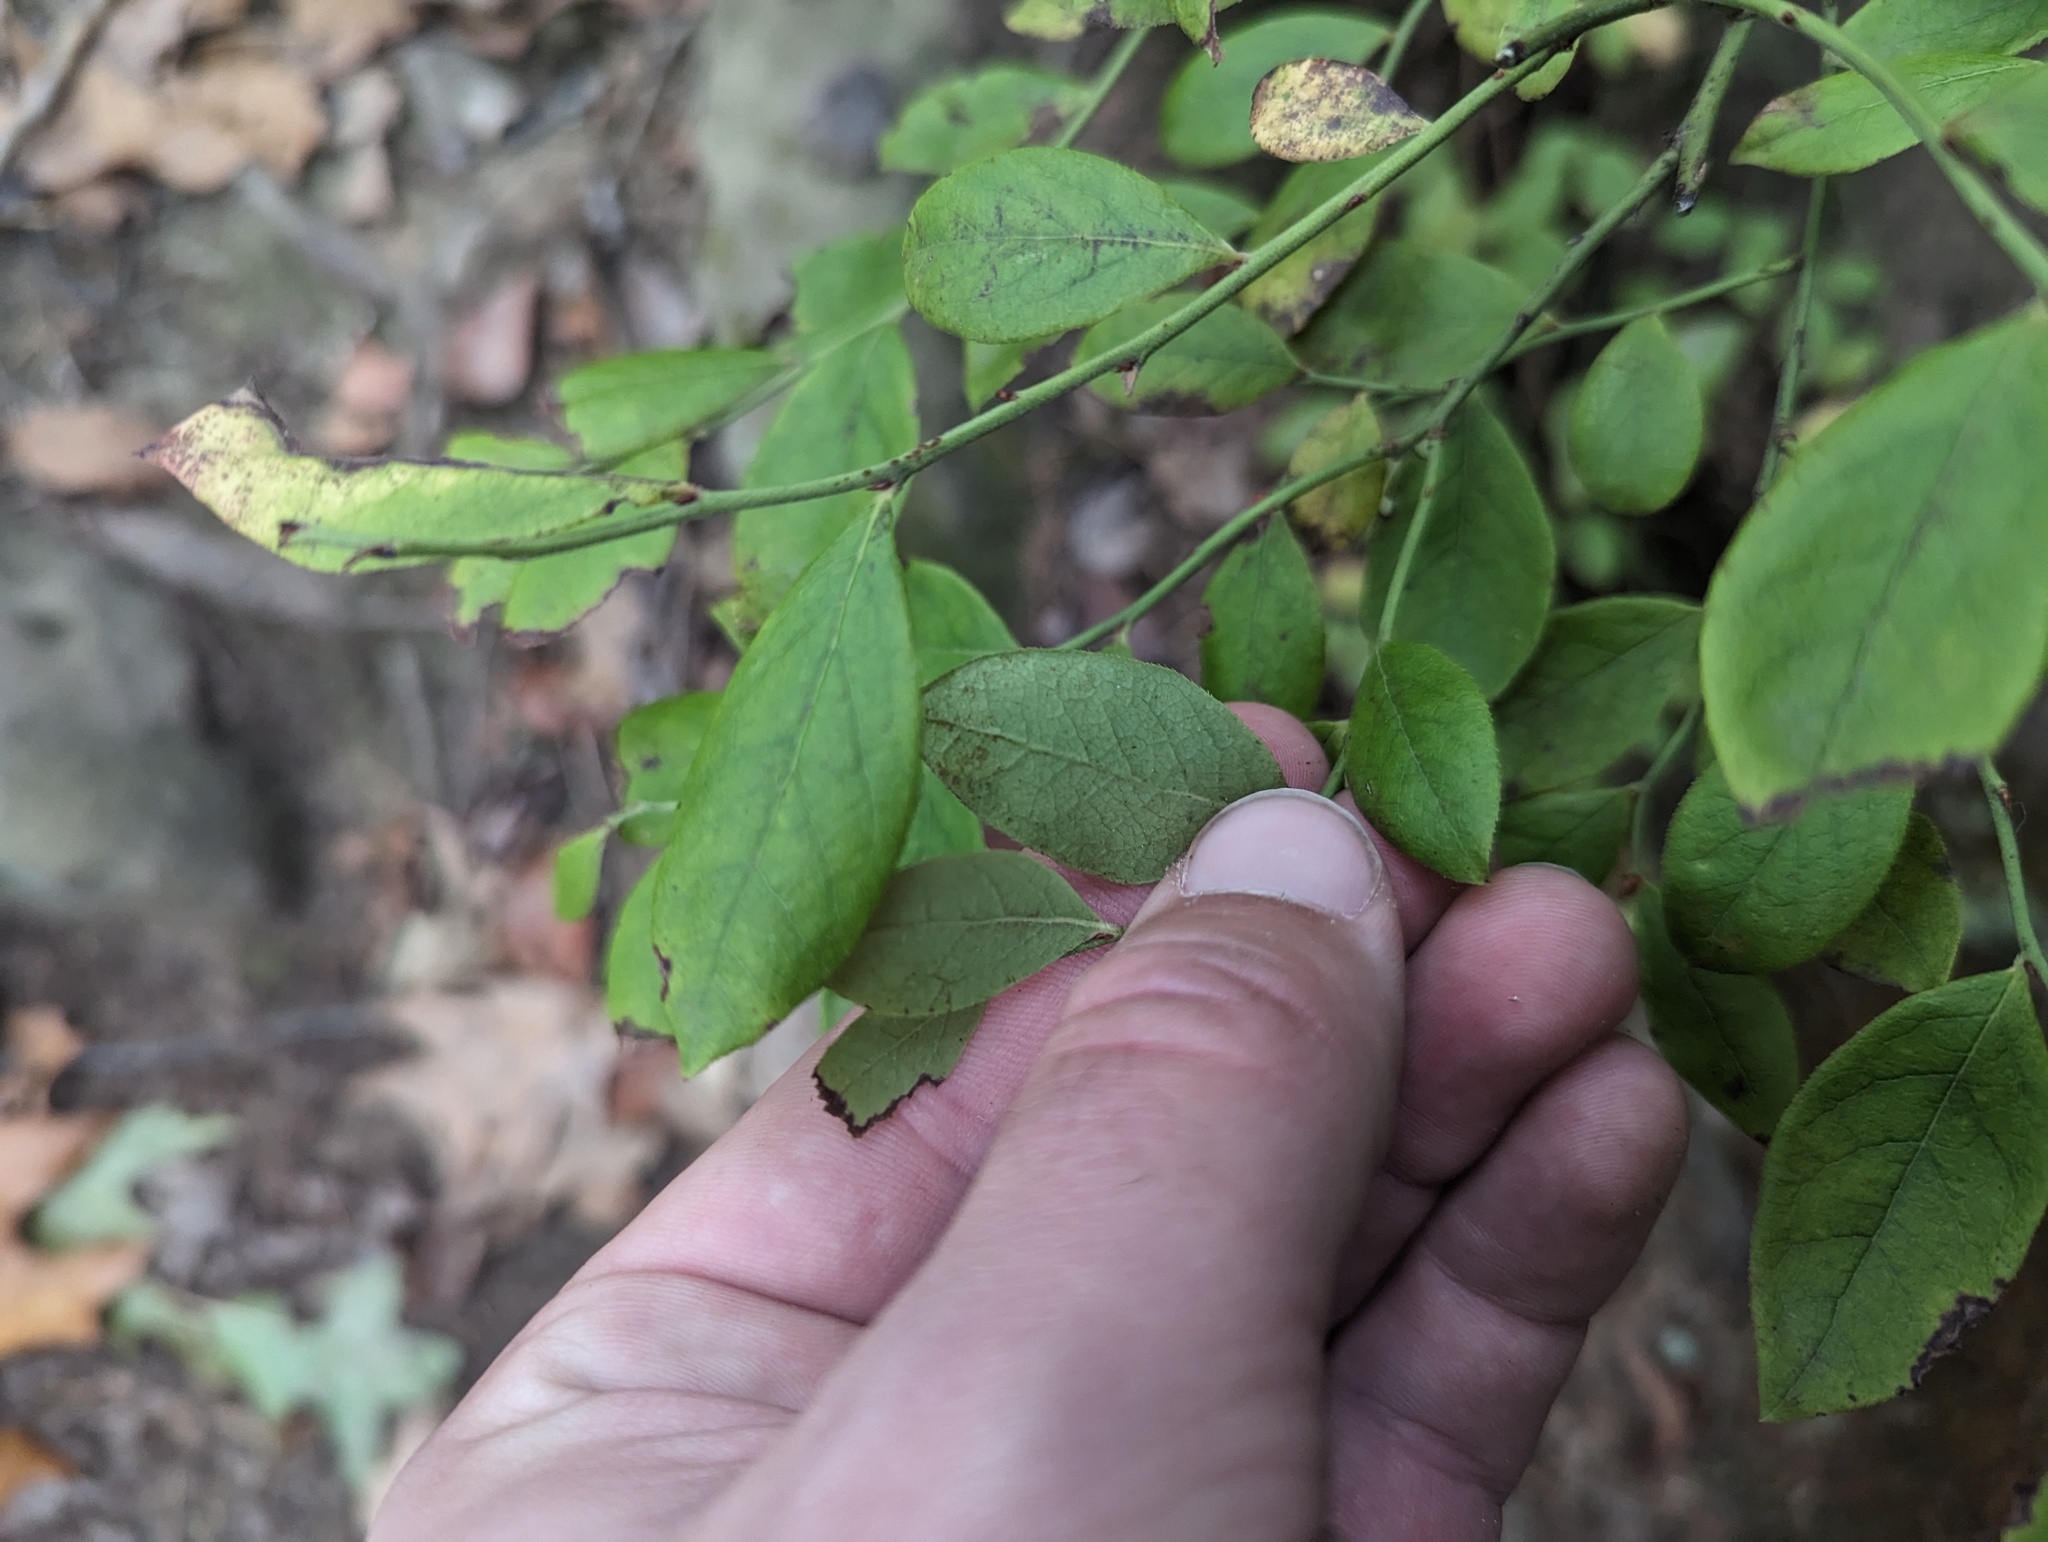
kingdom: Plantae
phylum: Tracheophyta
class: Magnoliopsida
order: Ericales
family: Ericaceae
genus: Vaccinium
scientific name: Vaccinium pallidum
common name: Blue ridge blueberry
